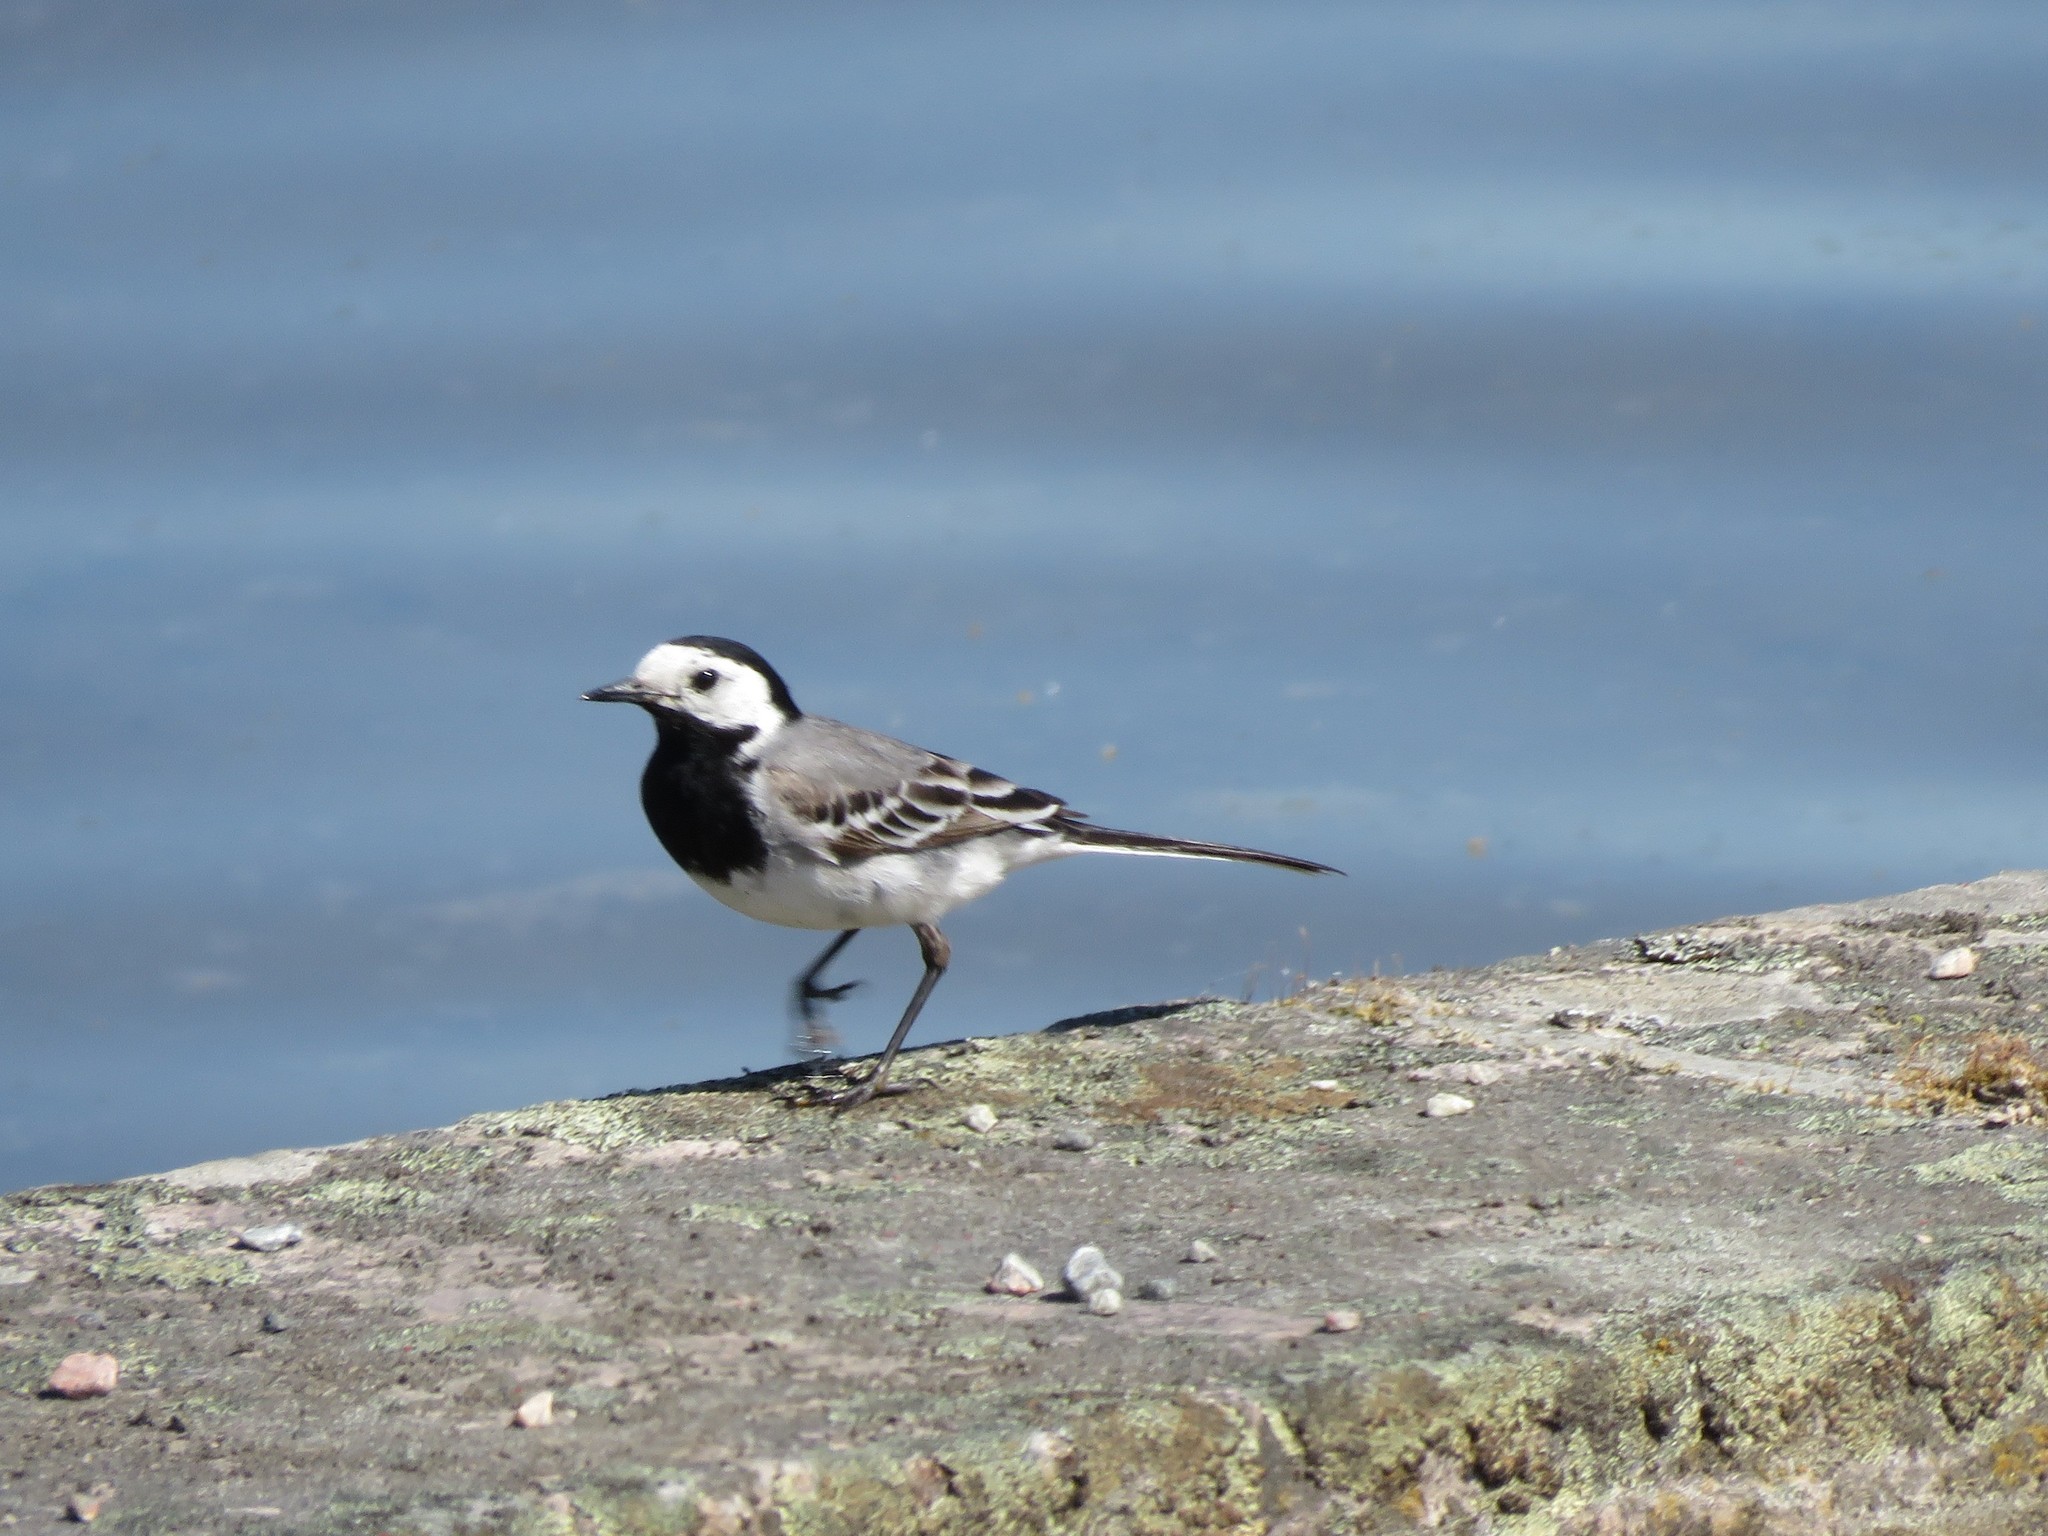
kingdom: Animalia
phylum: Chordata
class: Aves
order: Passeriformes
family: Motacillidae
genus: Motacilla
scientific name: Motacilla alba
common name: White wagtail
